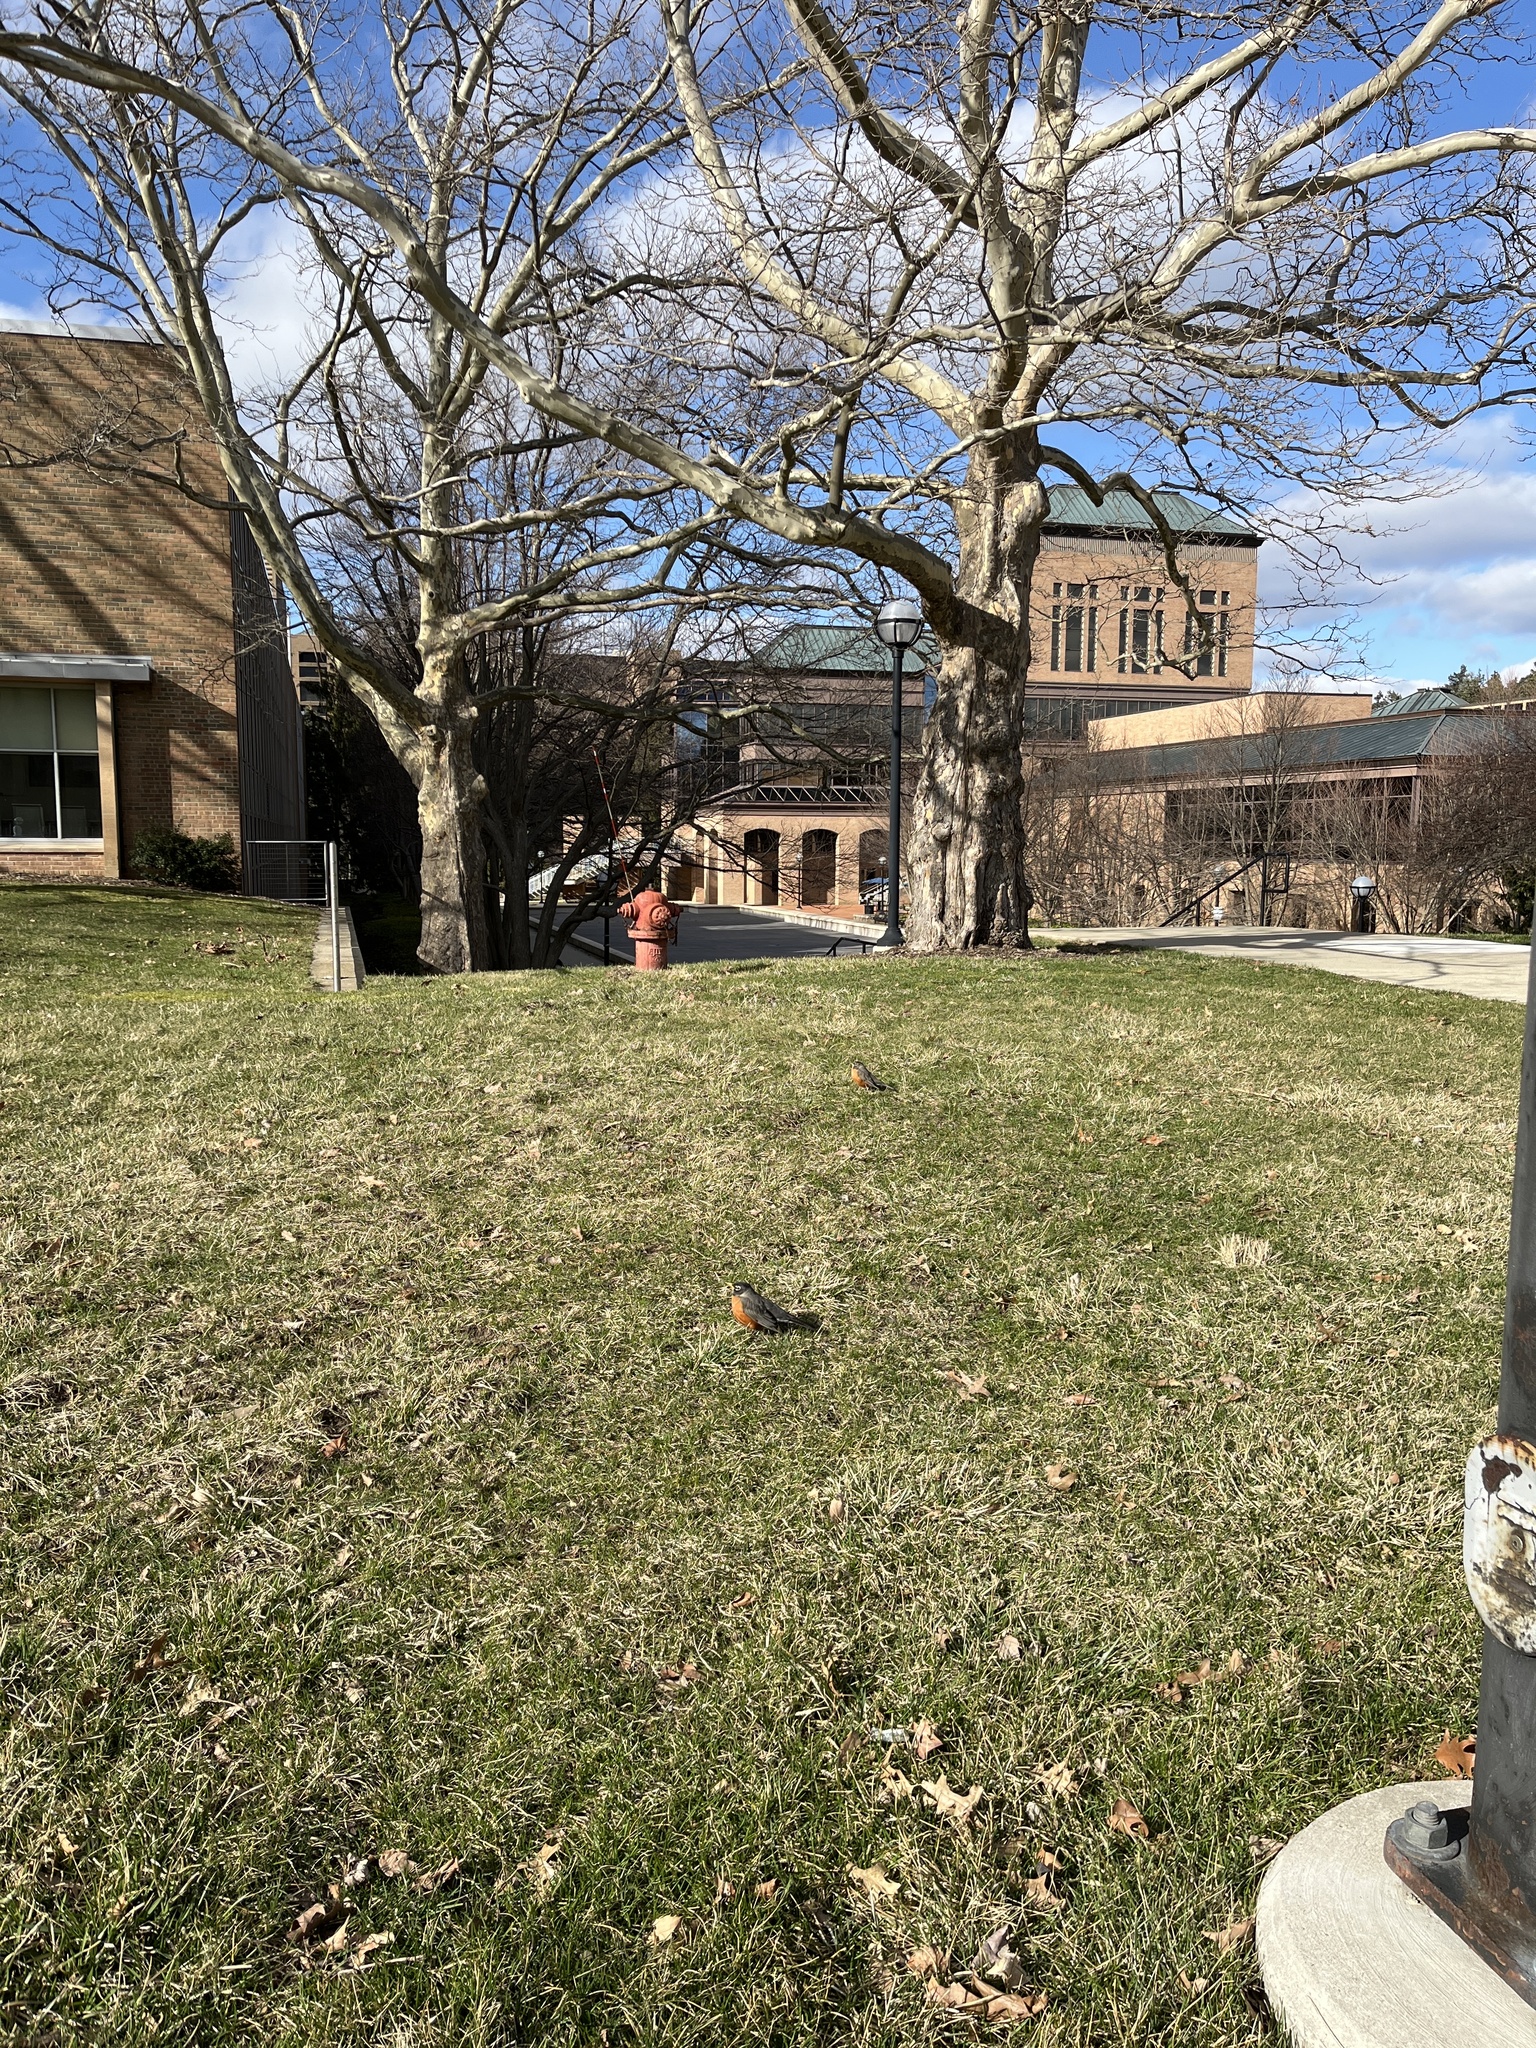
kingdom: Animalia
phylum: Chordata
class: Aves
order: Passeriformes
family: Turdidae
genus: Turdus
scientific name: Turdus migratorius
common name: American robin
